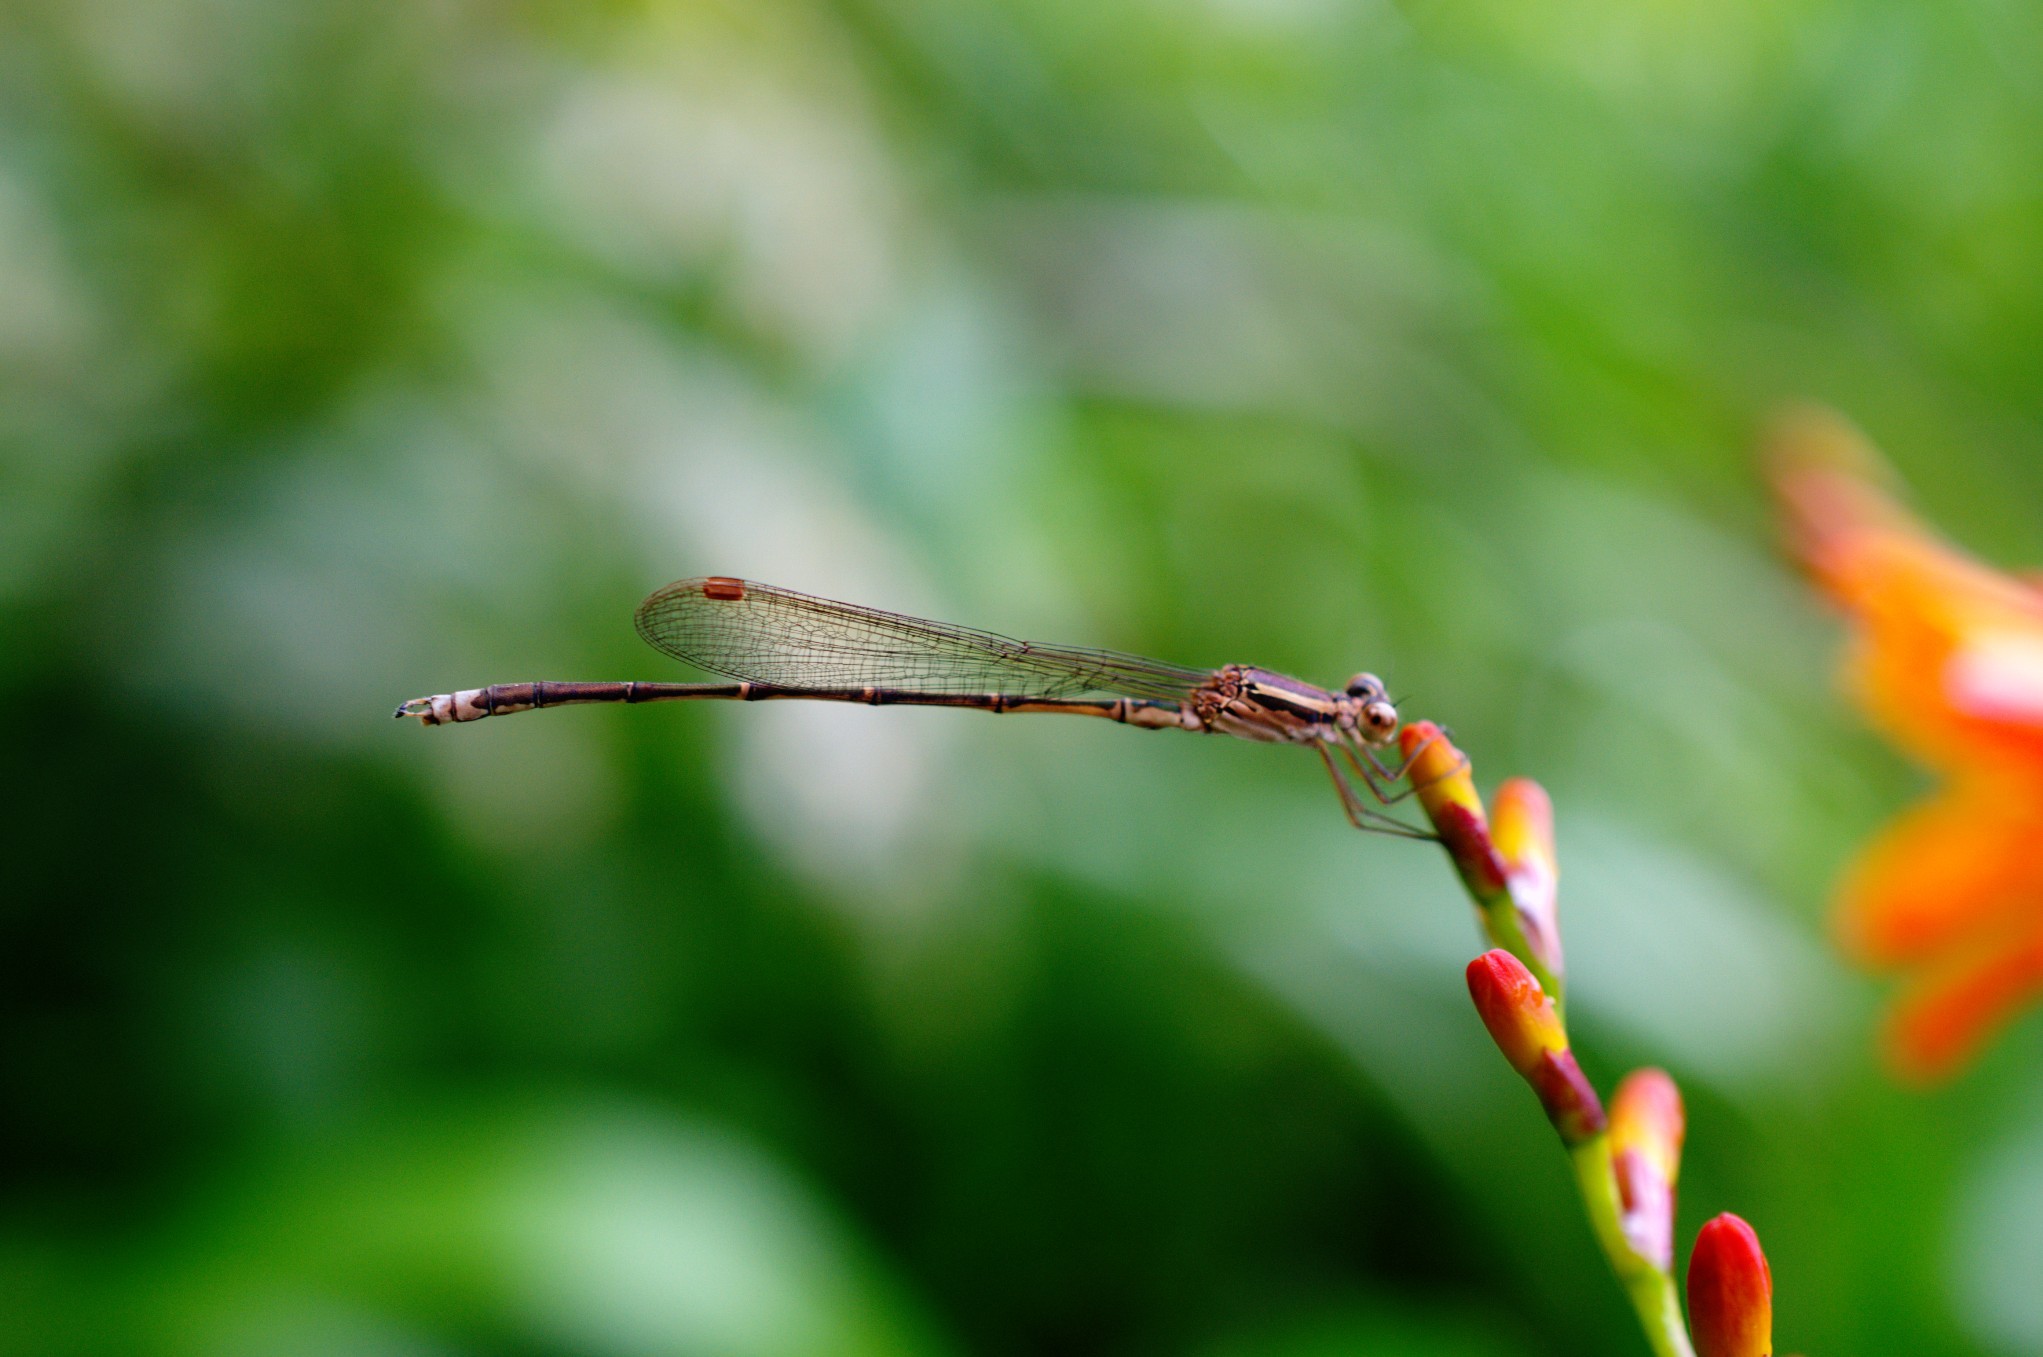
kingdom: Animalia
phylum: Arthropoda
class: Insecta
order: Odonata
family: Lestidae
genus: Indolestes
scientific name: Indolestes gracilis
